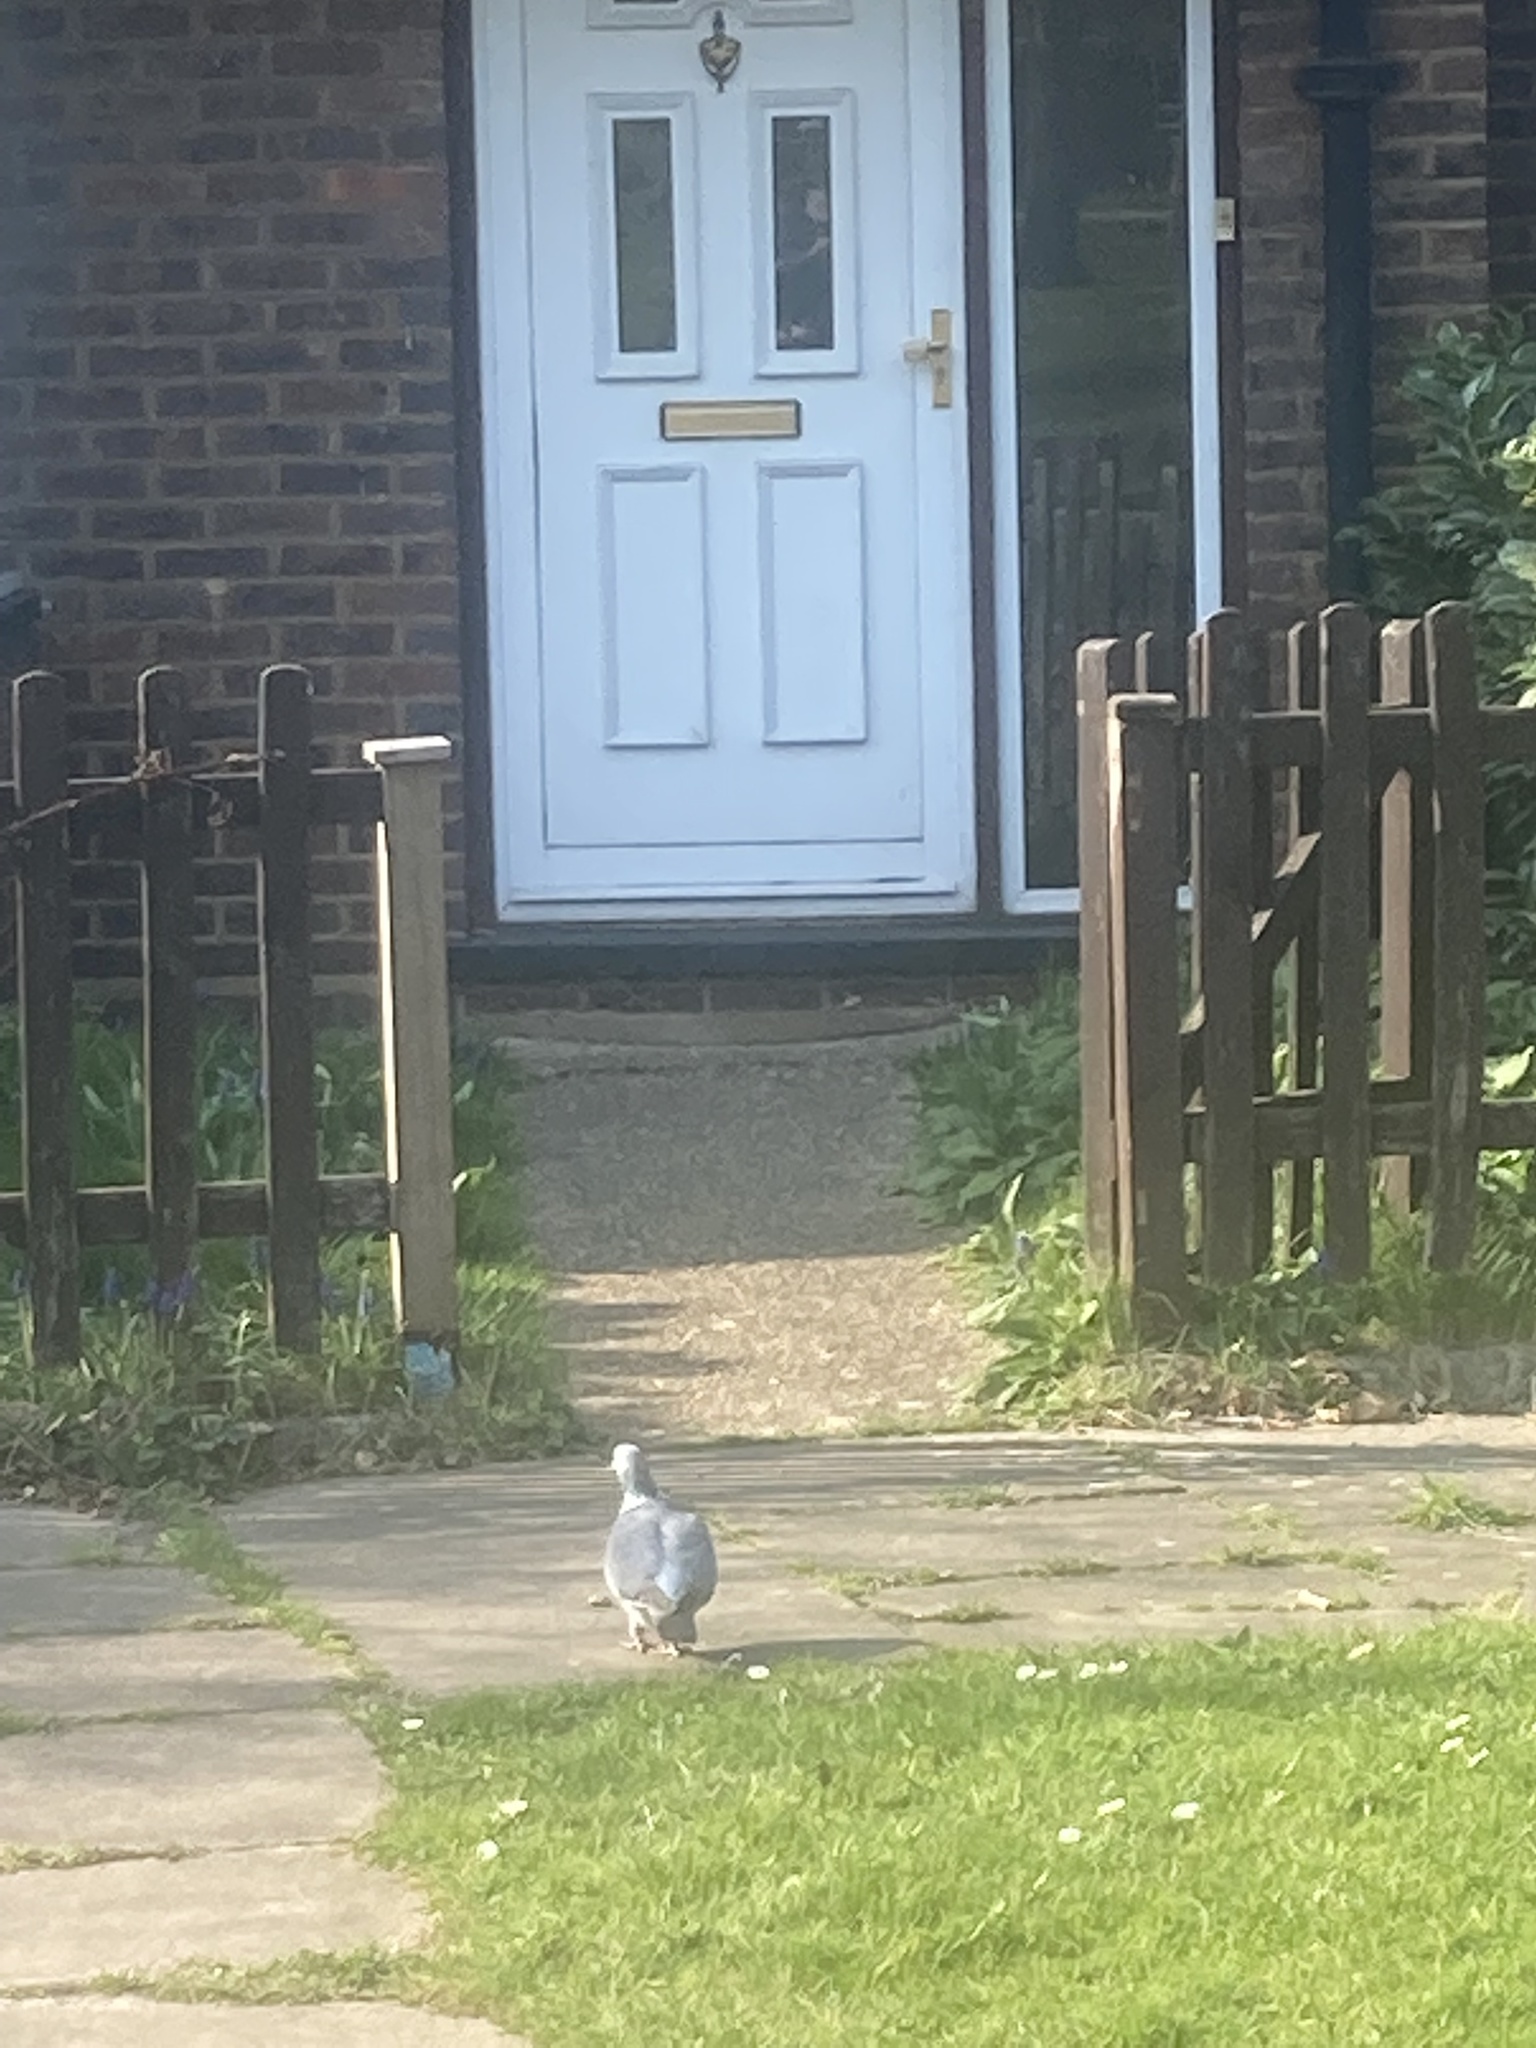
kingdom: Animalia
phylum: Chordata
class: Aves
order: Columbiformes
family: Columbidae
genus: Columba
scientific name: Columba palumbus
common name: Common wood pigeon
